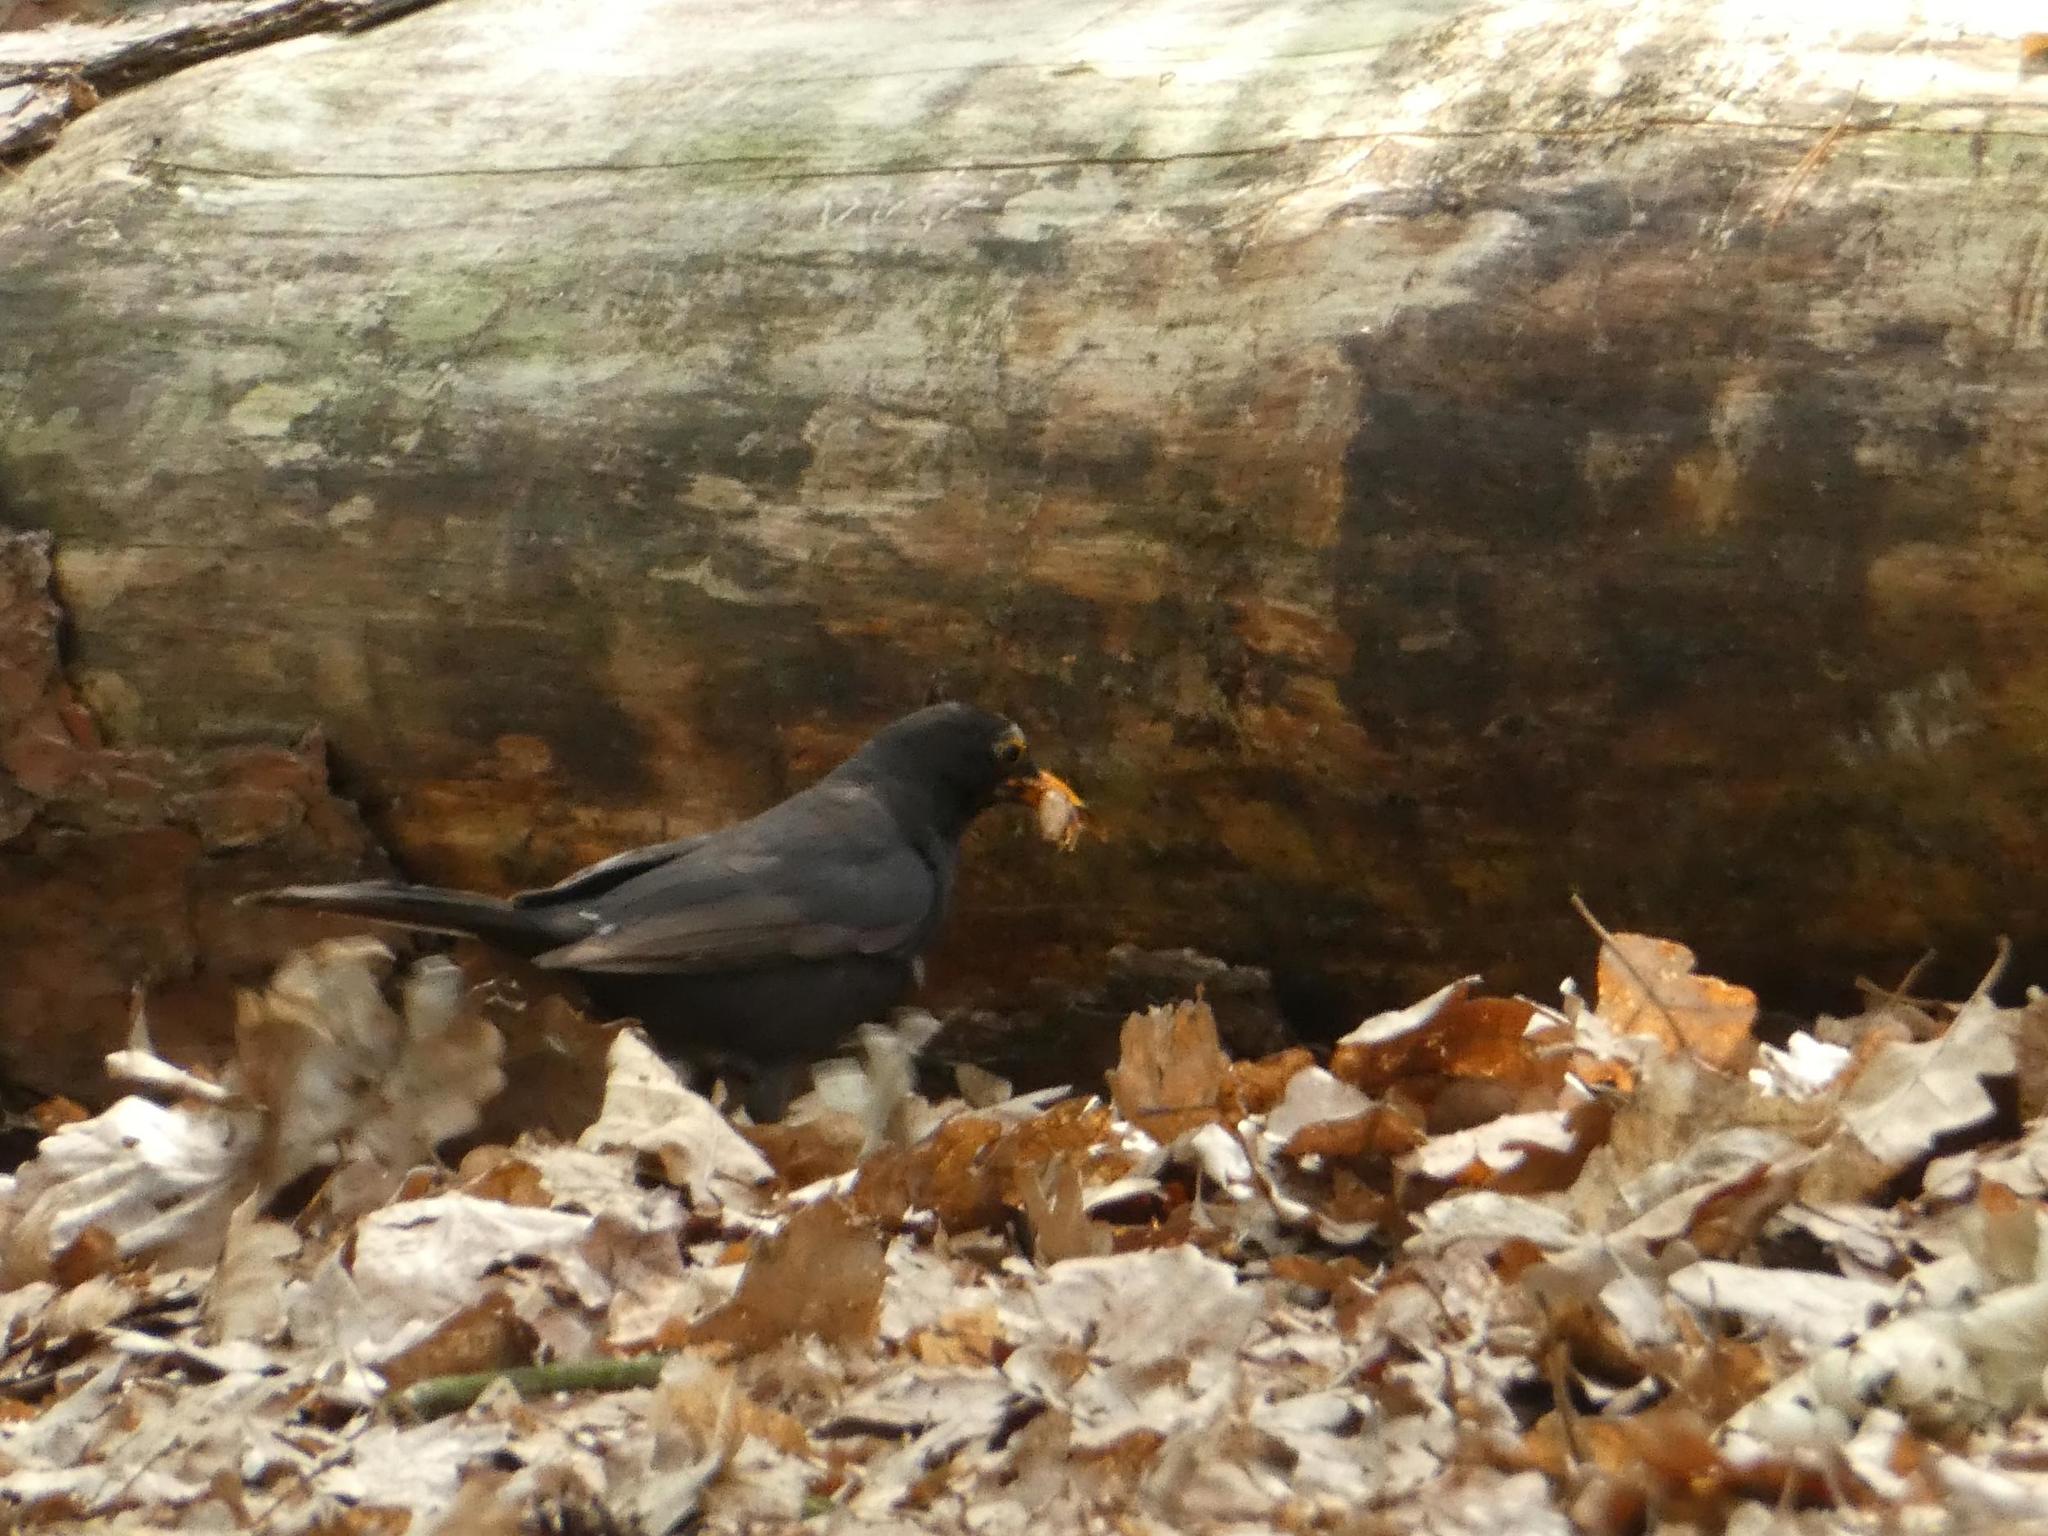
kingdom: Animalia
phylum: Chordata
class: Aves
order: Passeriformes
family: Turdidae
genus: Turdus
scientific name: Turdus merula
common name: Common blackbird
